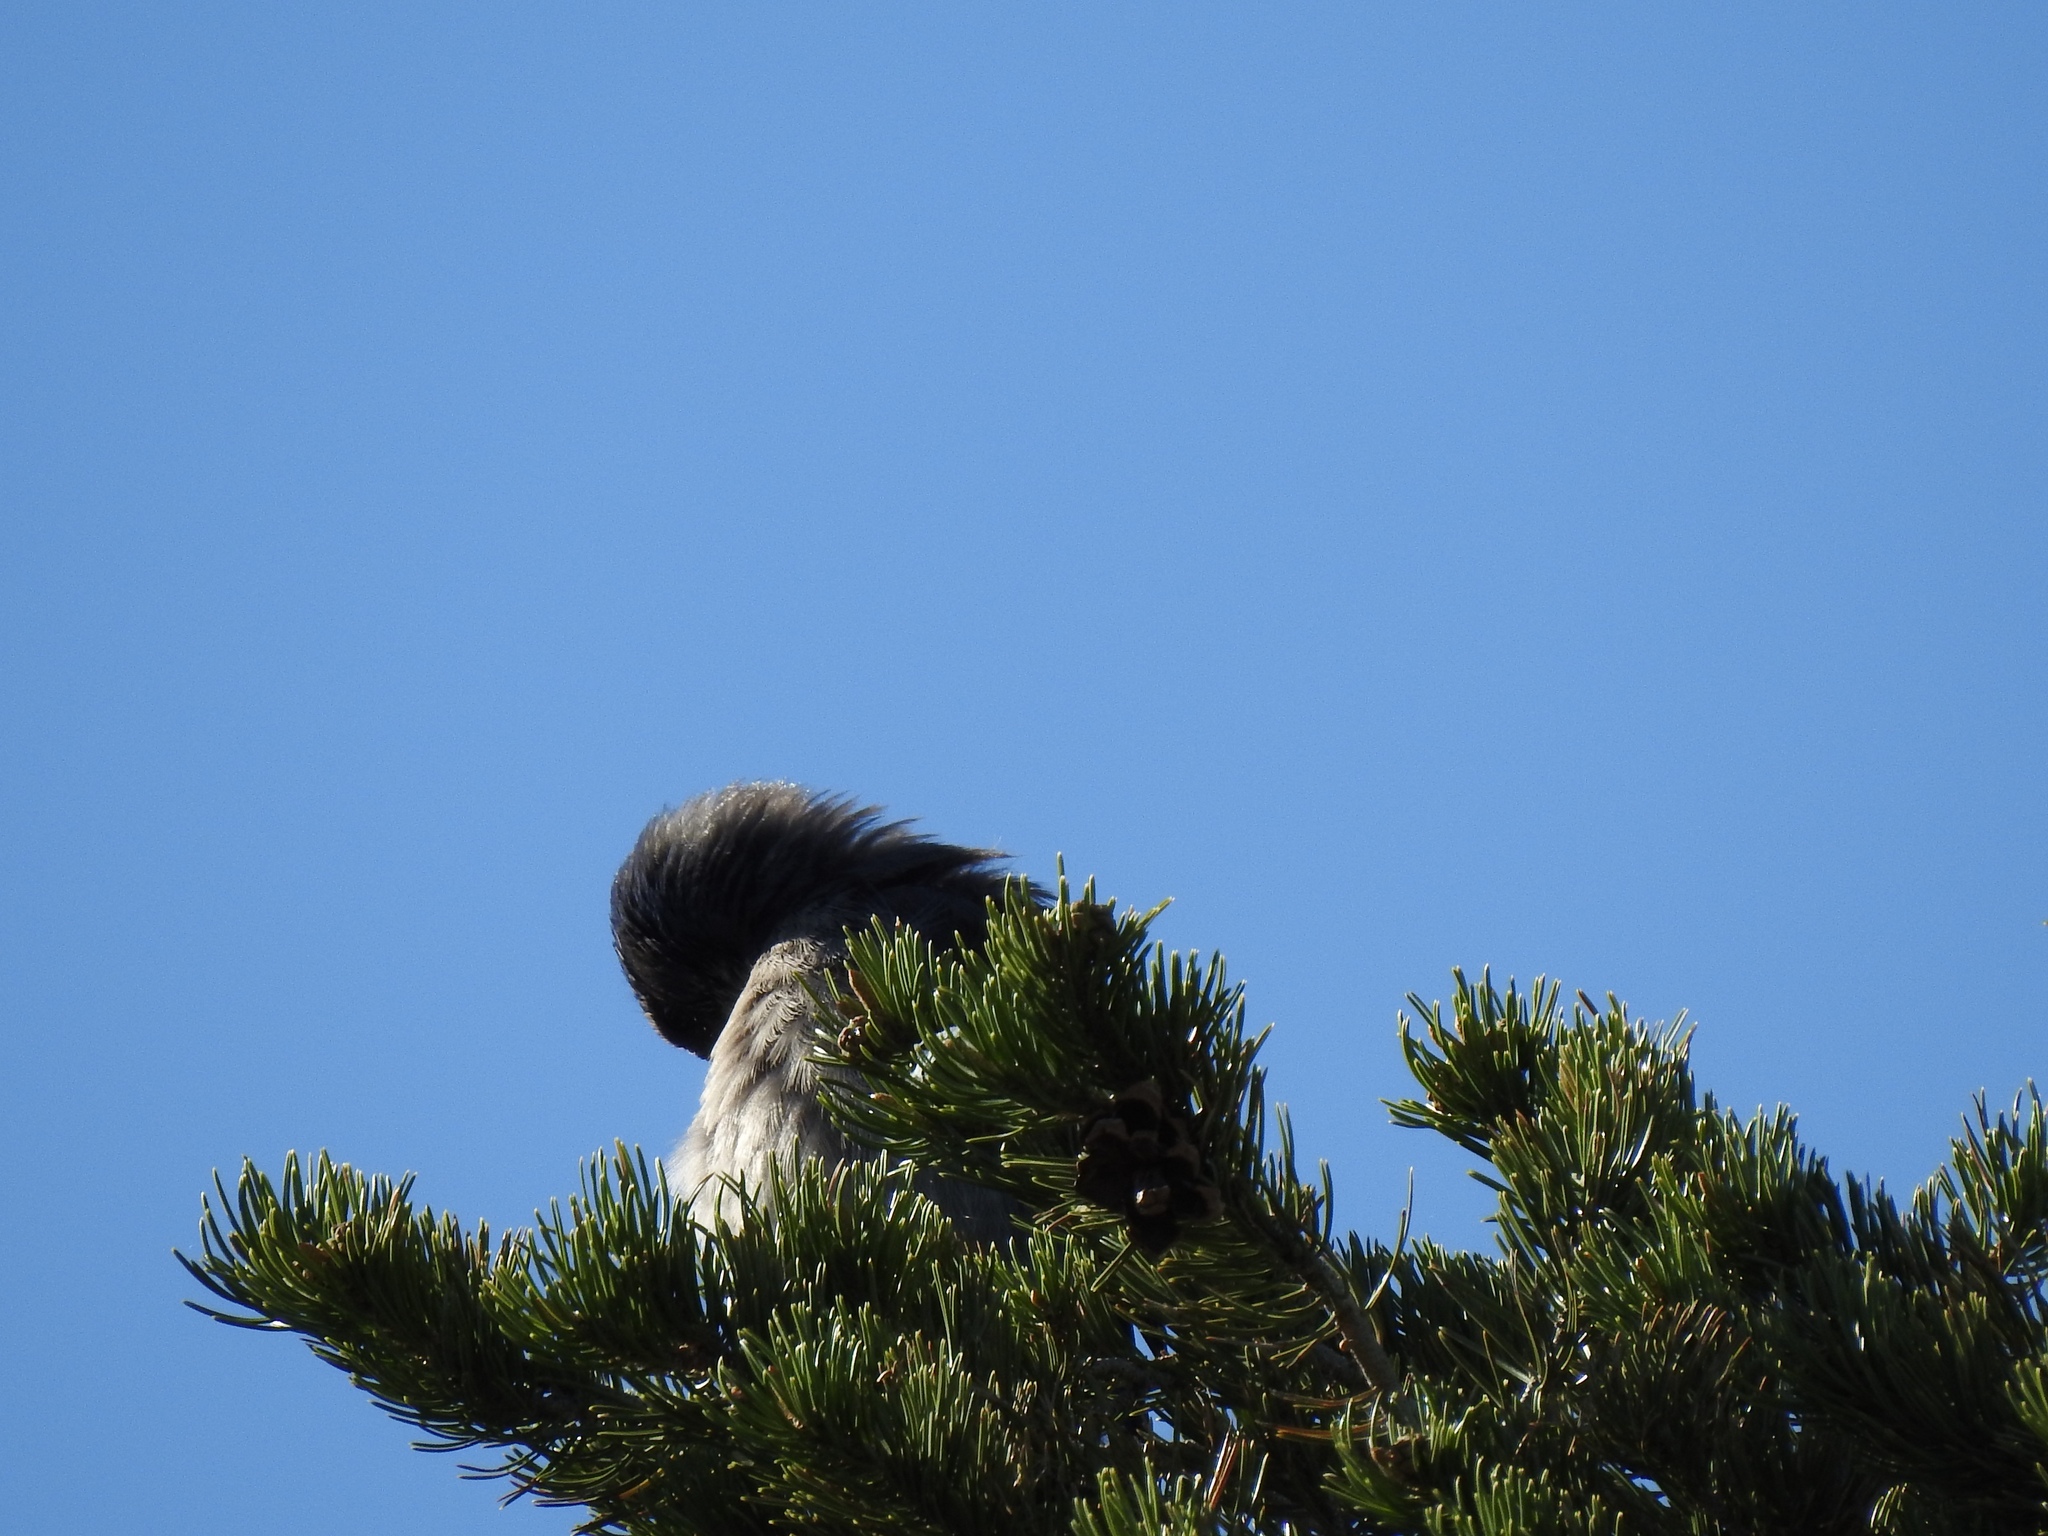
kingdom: Animalia
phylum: Chordata
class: Aves
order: Passeriformes
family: Corvidae
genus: Aphelocoma
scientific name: Aphelocoma woodhouseii
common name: Woodhouse's scrub-jay
